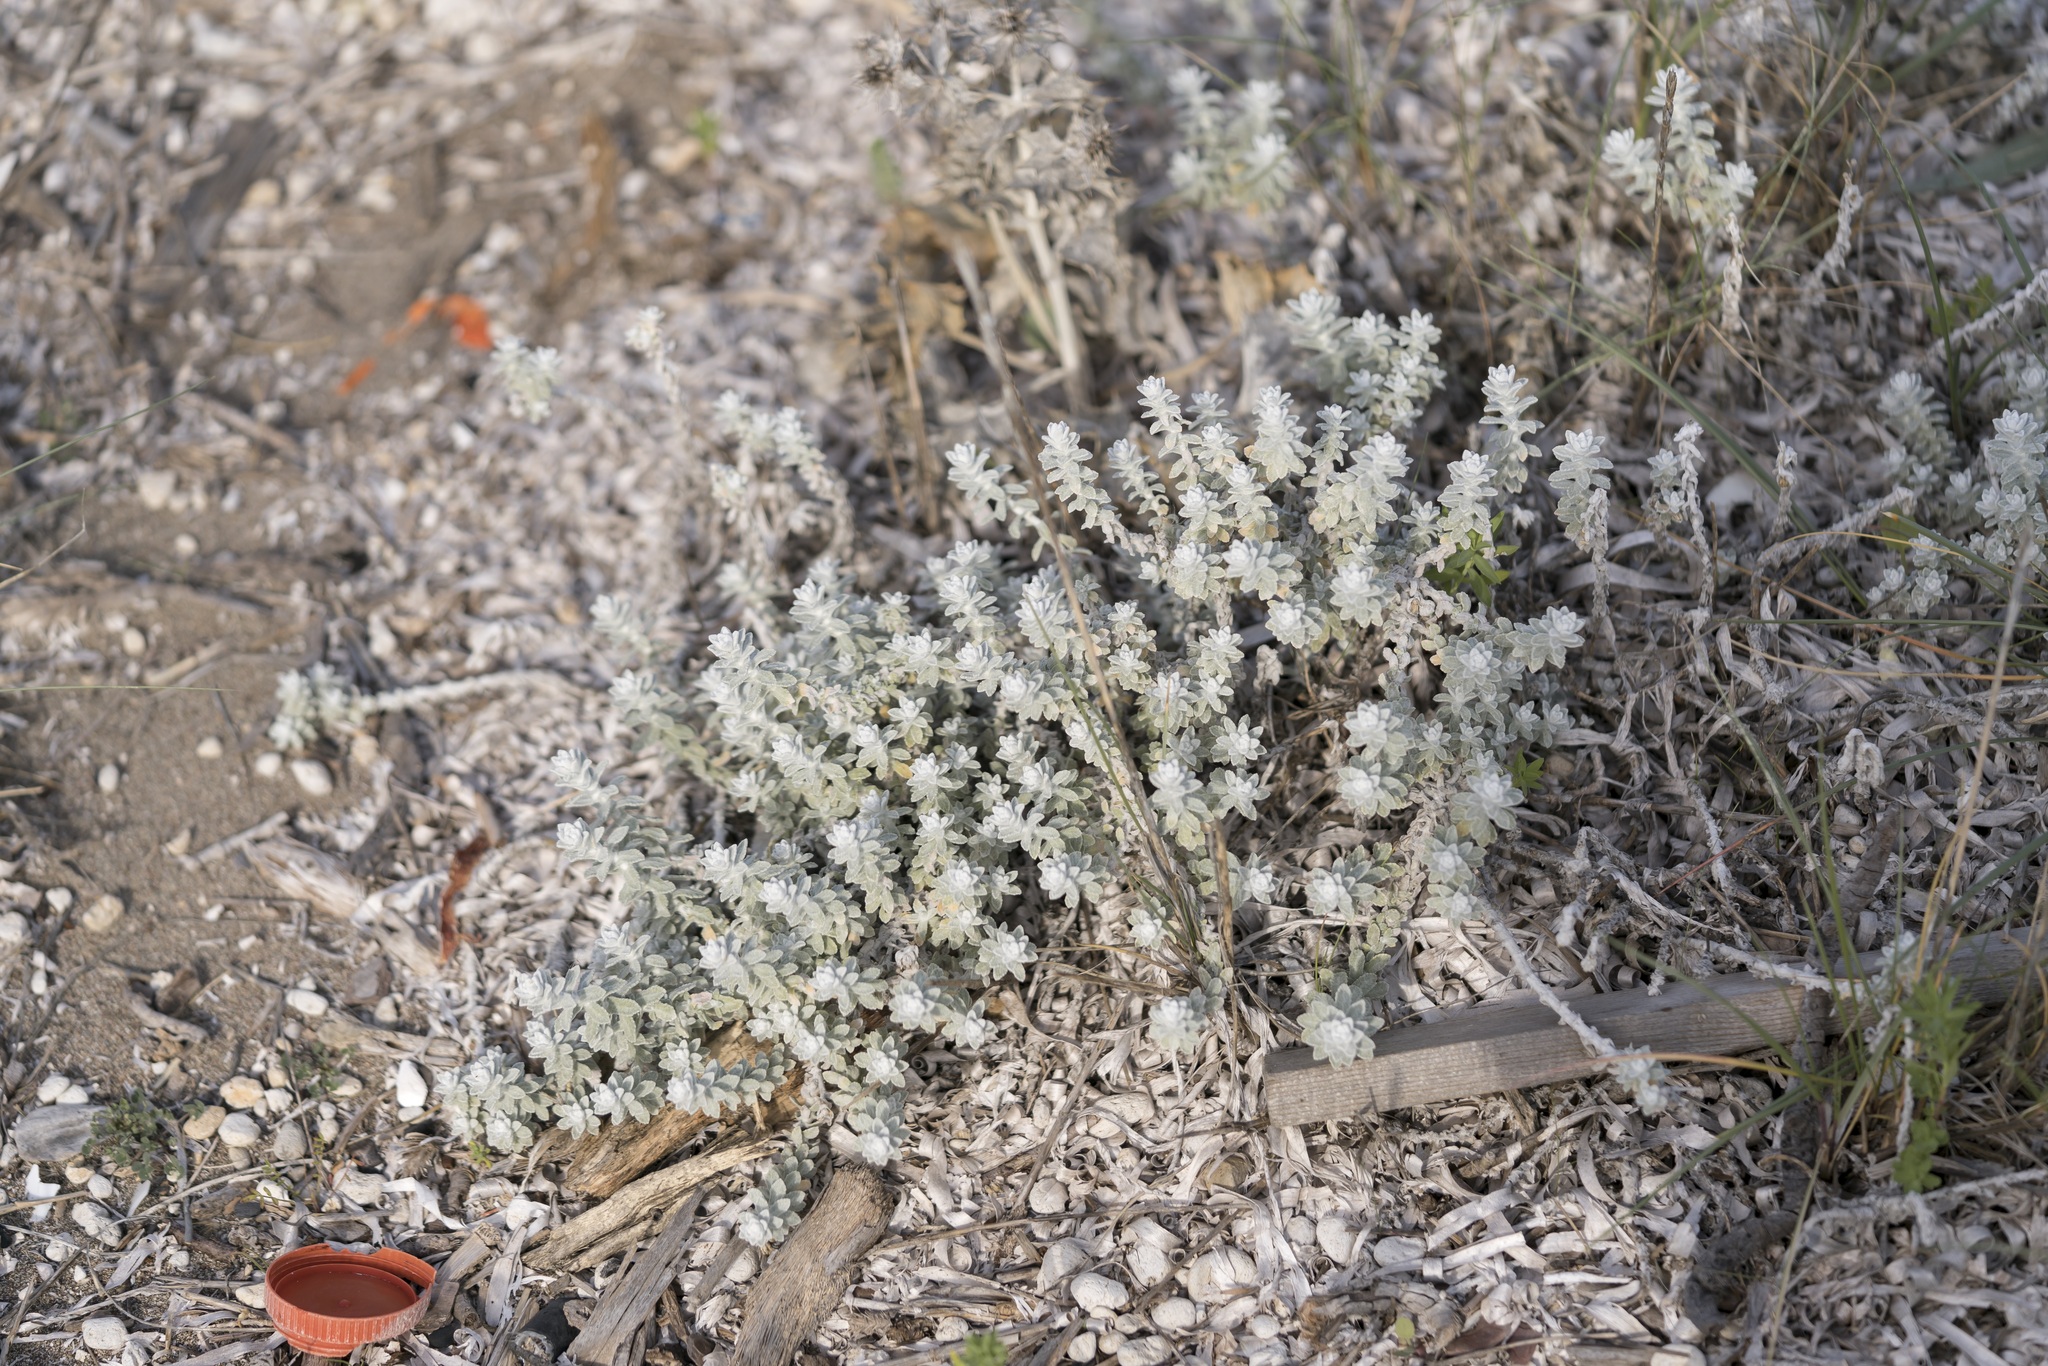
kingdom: Plantae
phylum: Tracheophyta
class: Magnoliopsida
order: Asterales
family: Asteraceae
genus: Achillea
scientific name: Achillea maritima
